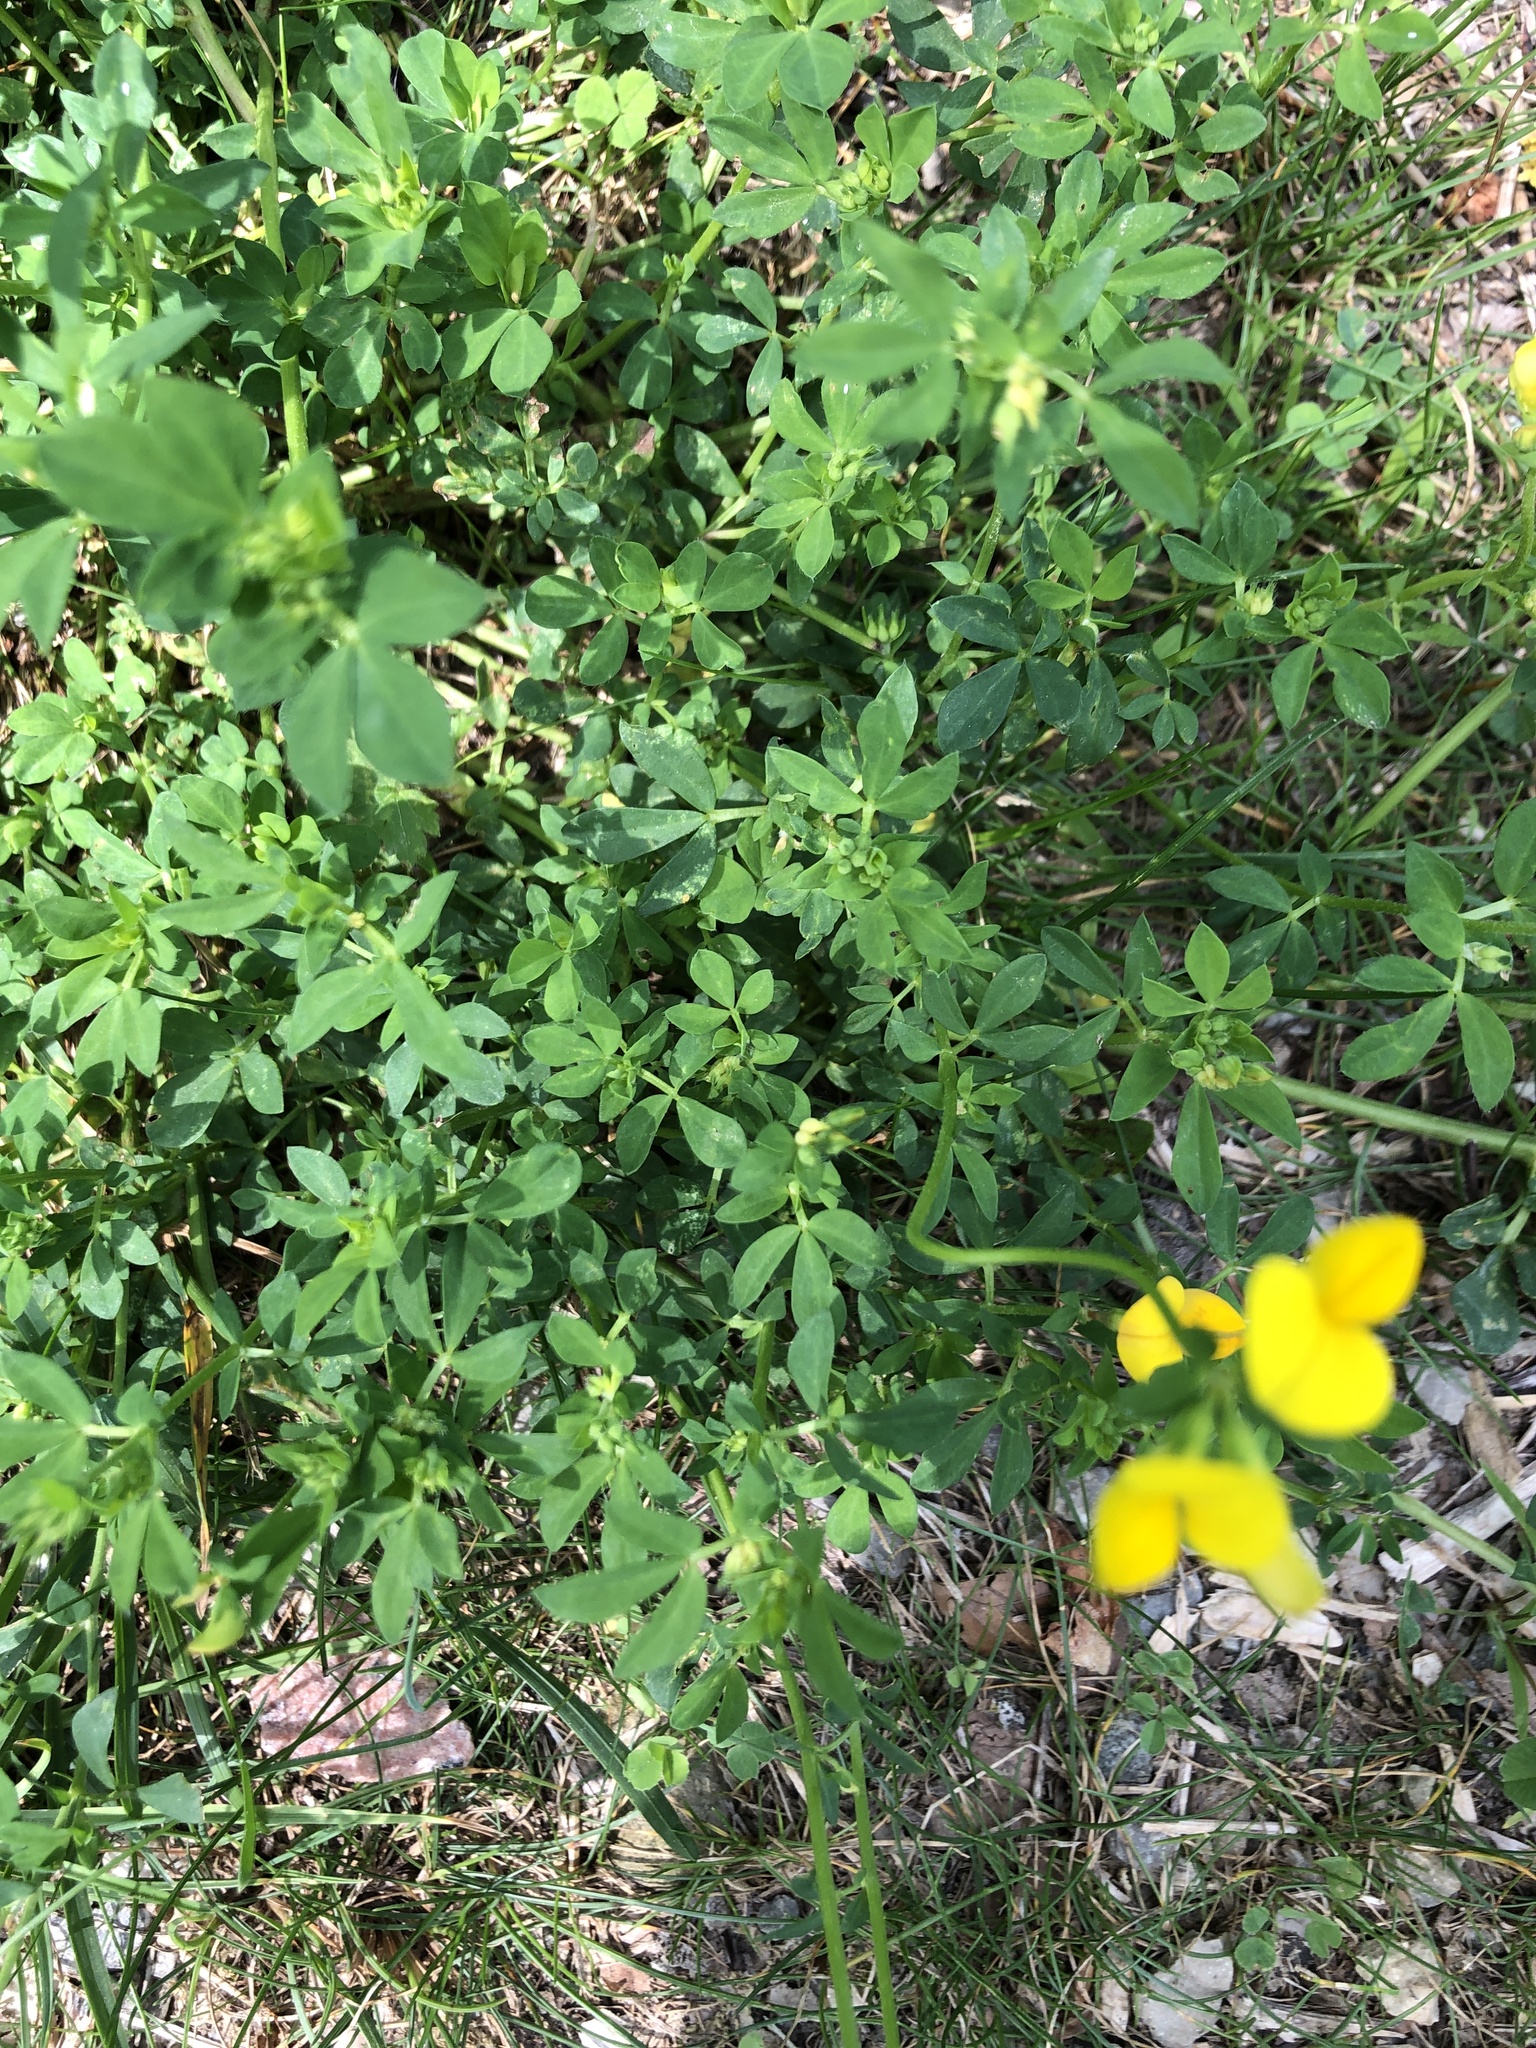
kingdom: Plantae
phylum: Tracheophyta
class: Magnoliopsida
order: Fabales
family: Fabaceae
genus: Lotus
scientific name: Lotus corniculatus
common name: Common bird's-foot-trefoil
